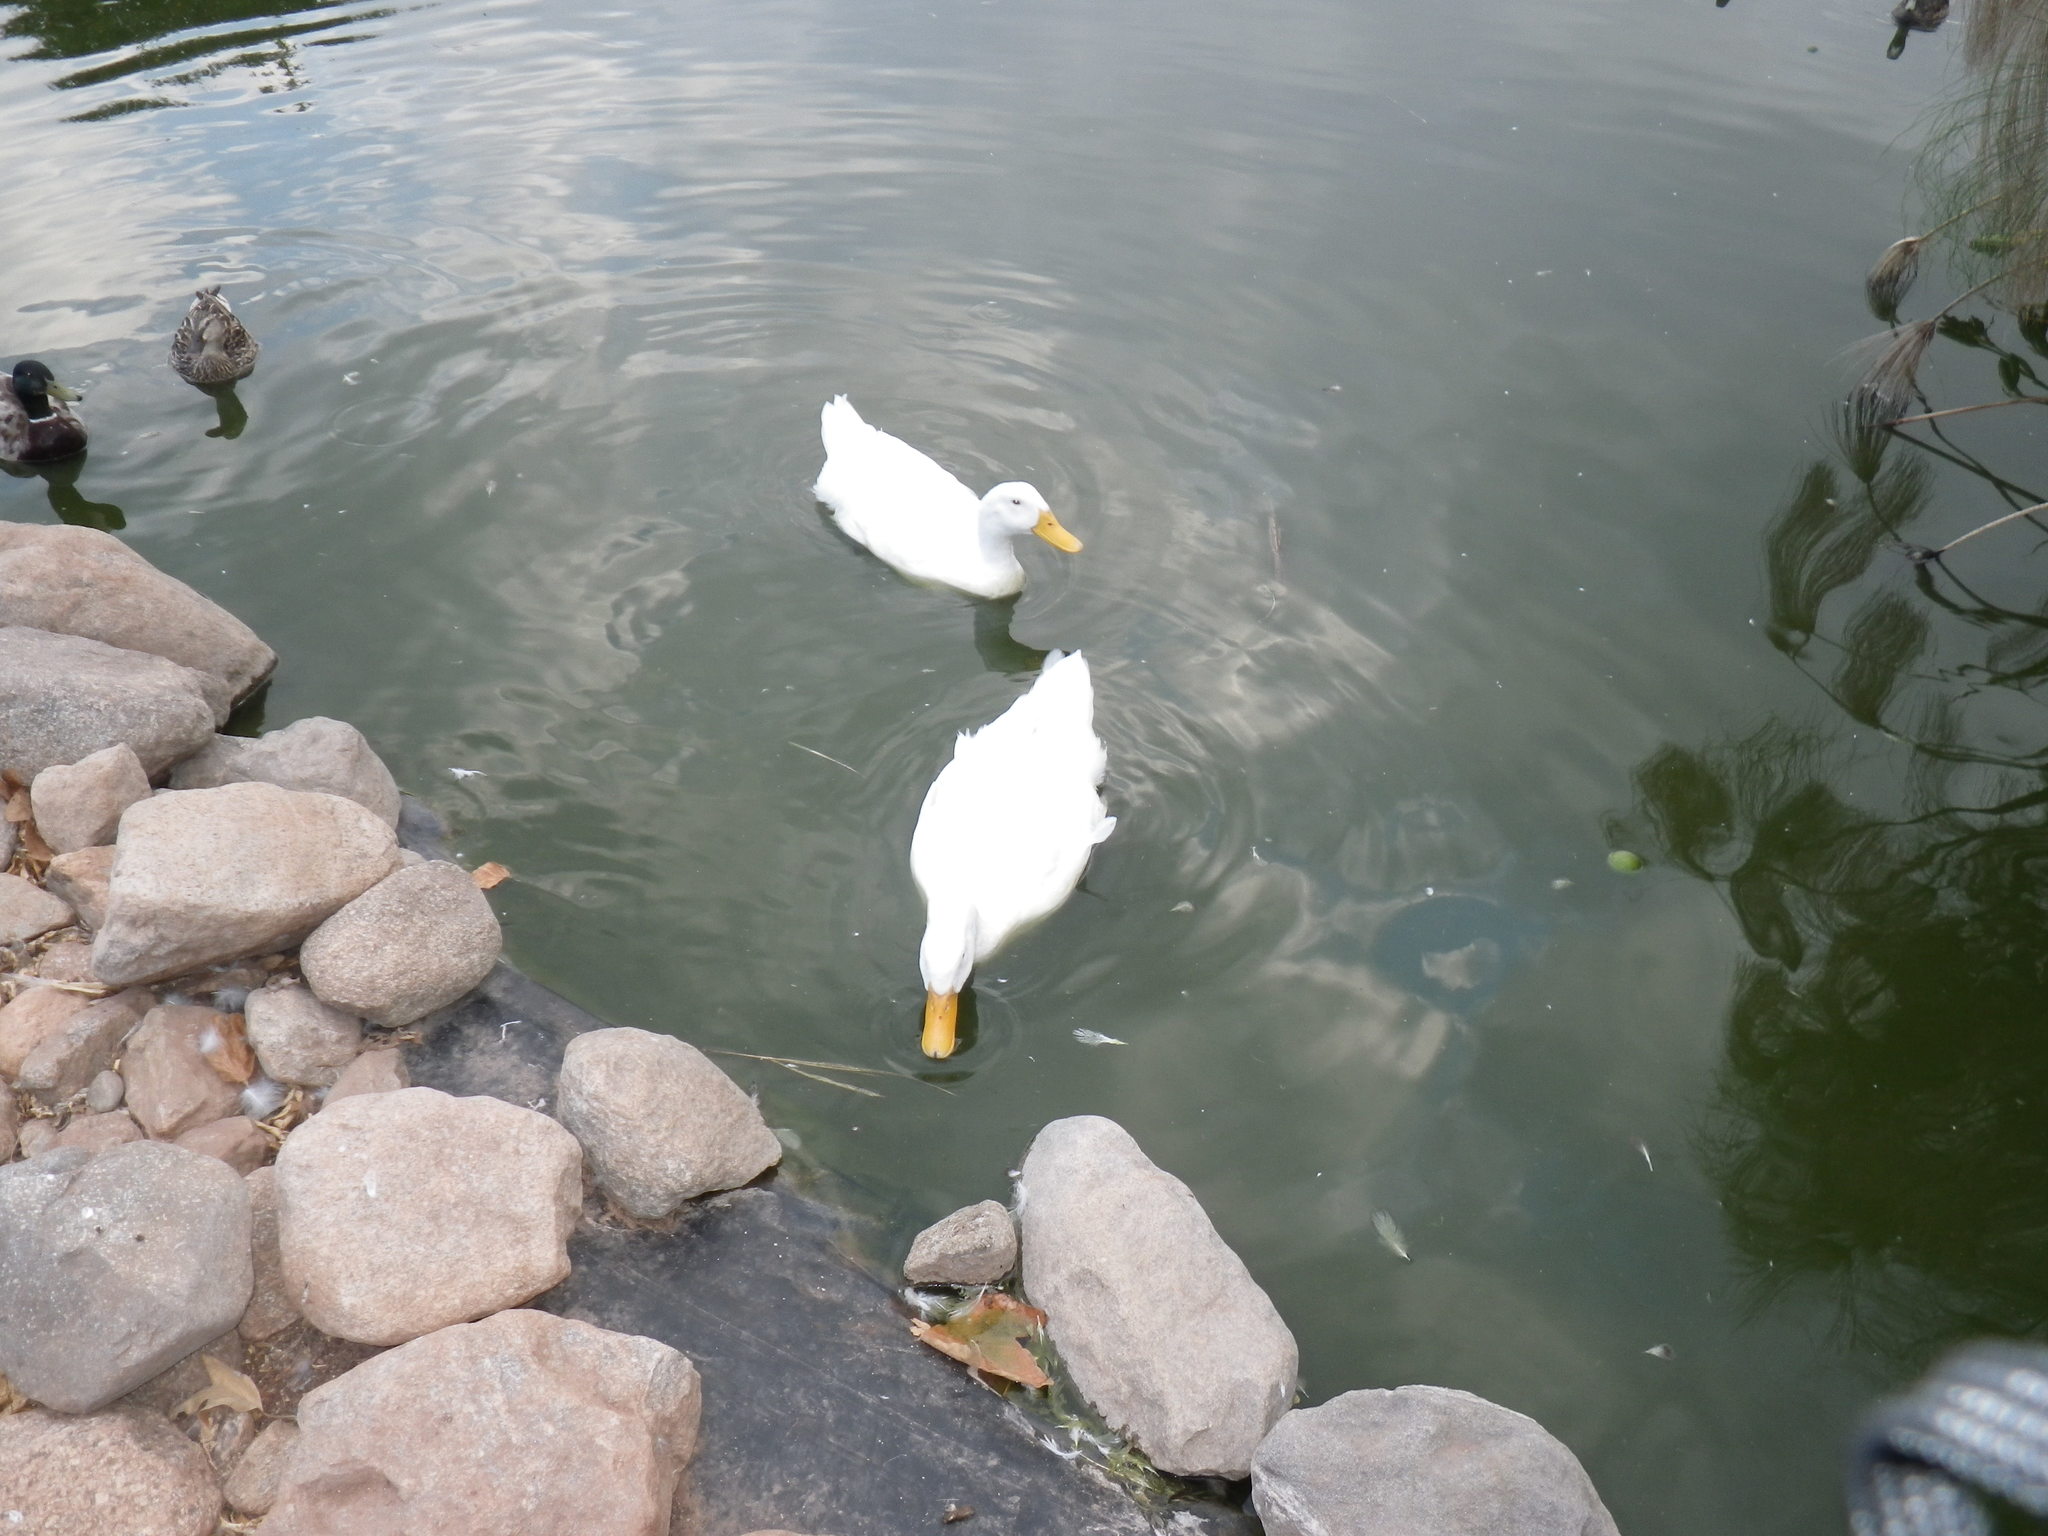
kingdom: Animalia
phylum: Chordata
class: Aves
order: Anseriformes
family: Anatidae
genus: Anas
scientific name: Anas platyrhynchos
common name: Mallard
